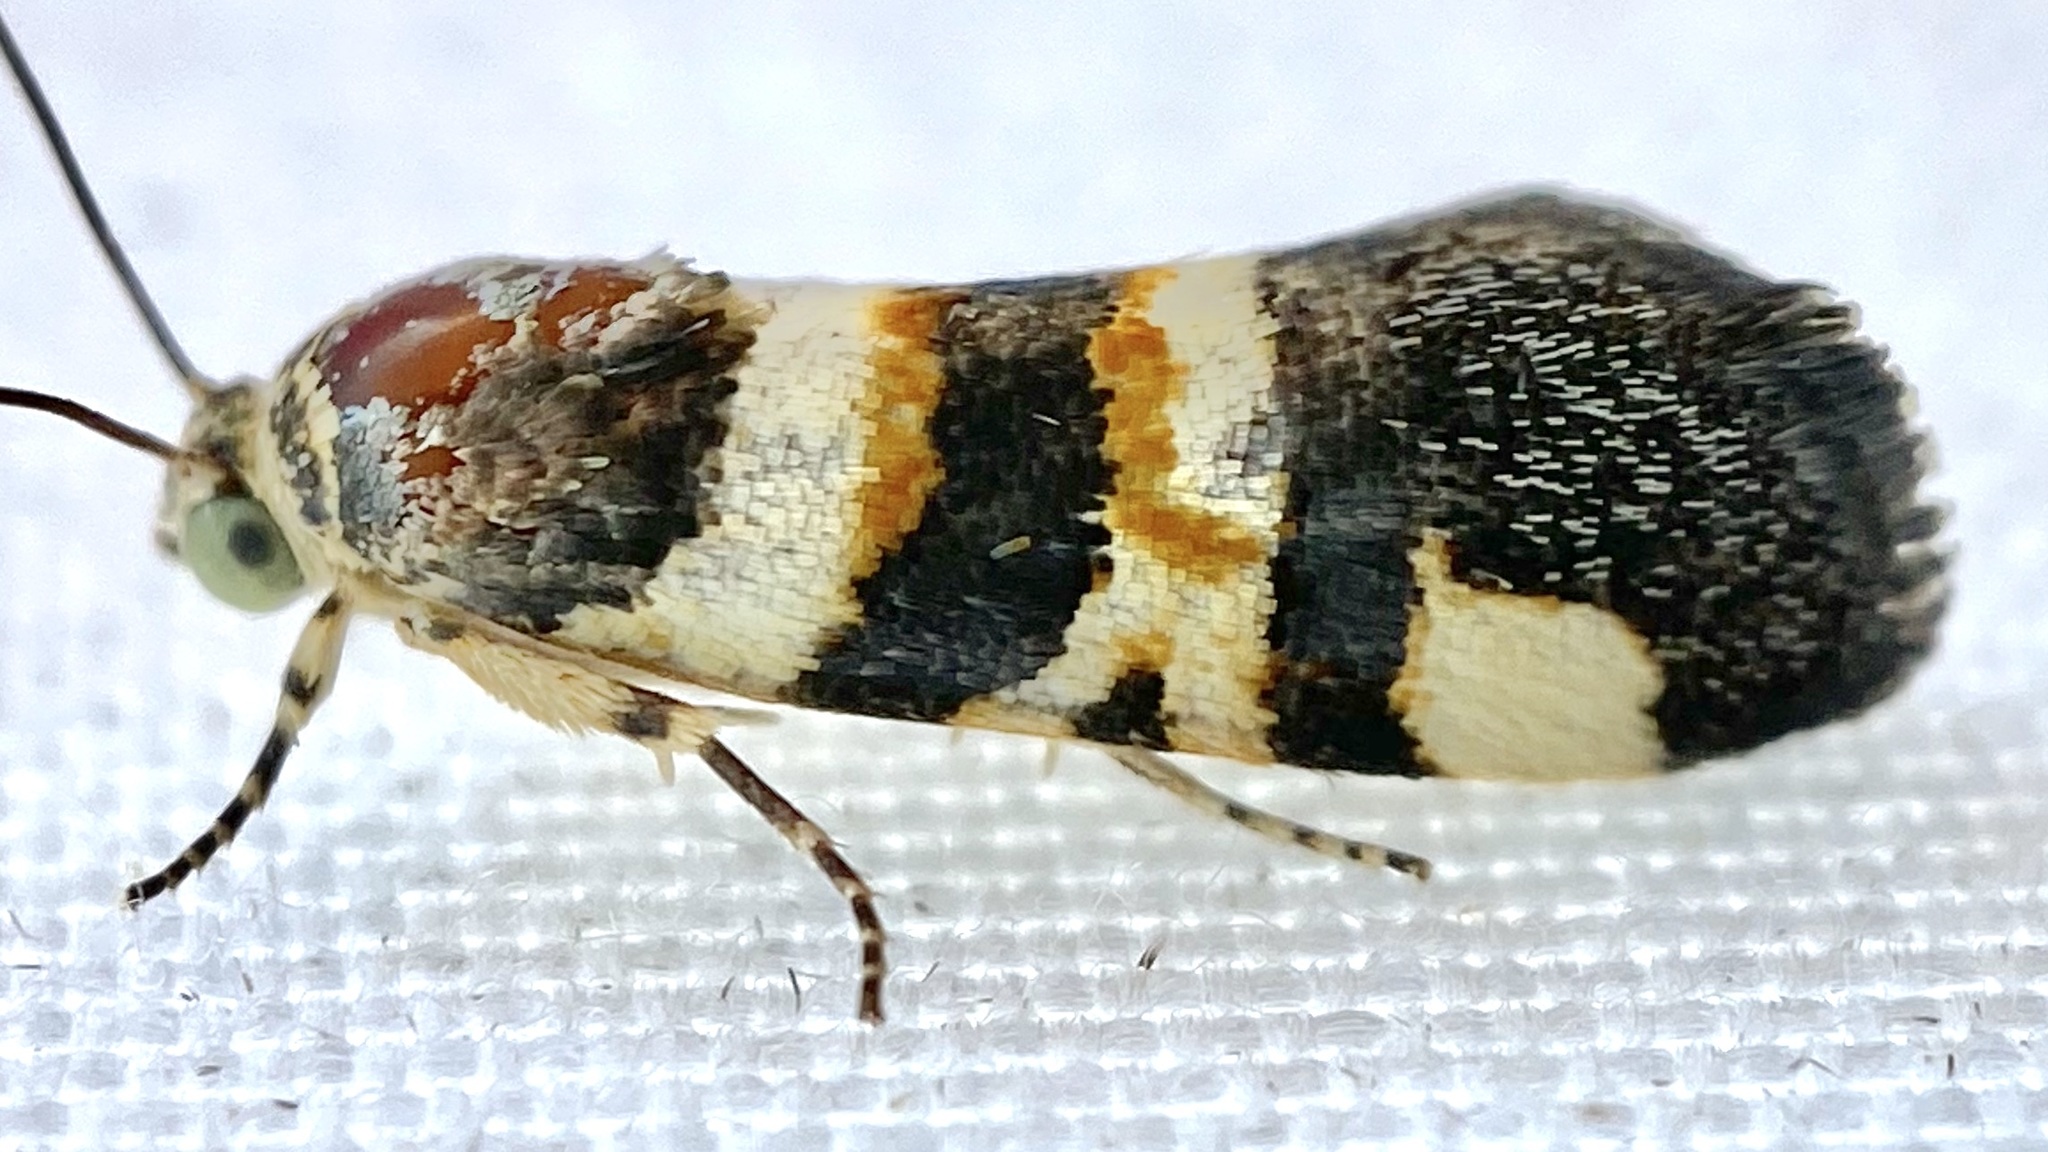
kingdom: Animalia
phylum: Arthropoda
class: Insecta
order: Lepidoptera
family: Noctuidae
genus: Spragueia
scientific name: Spragueia funeralis
